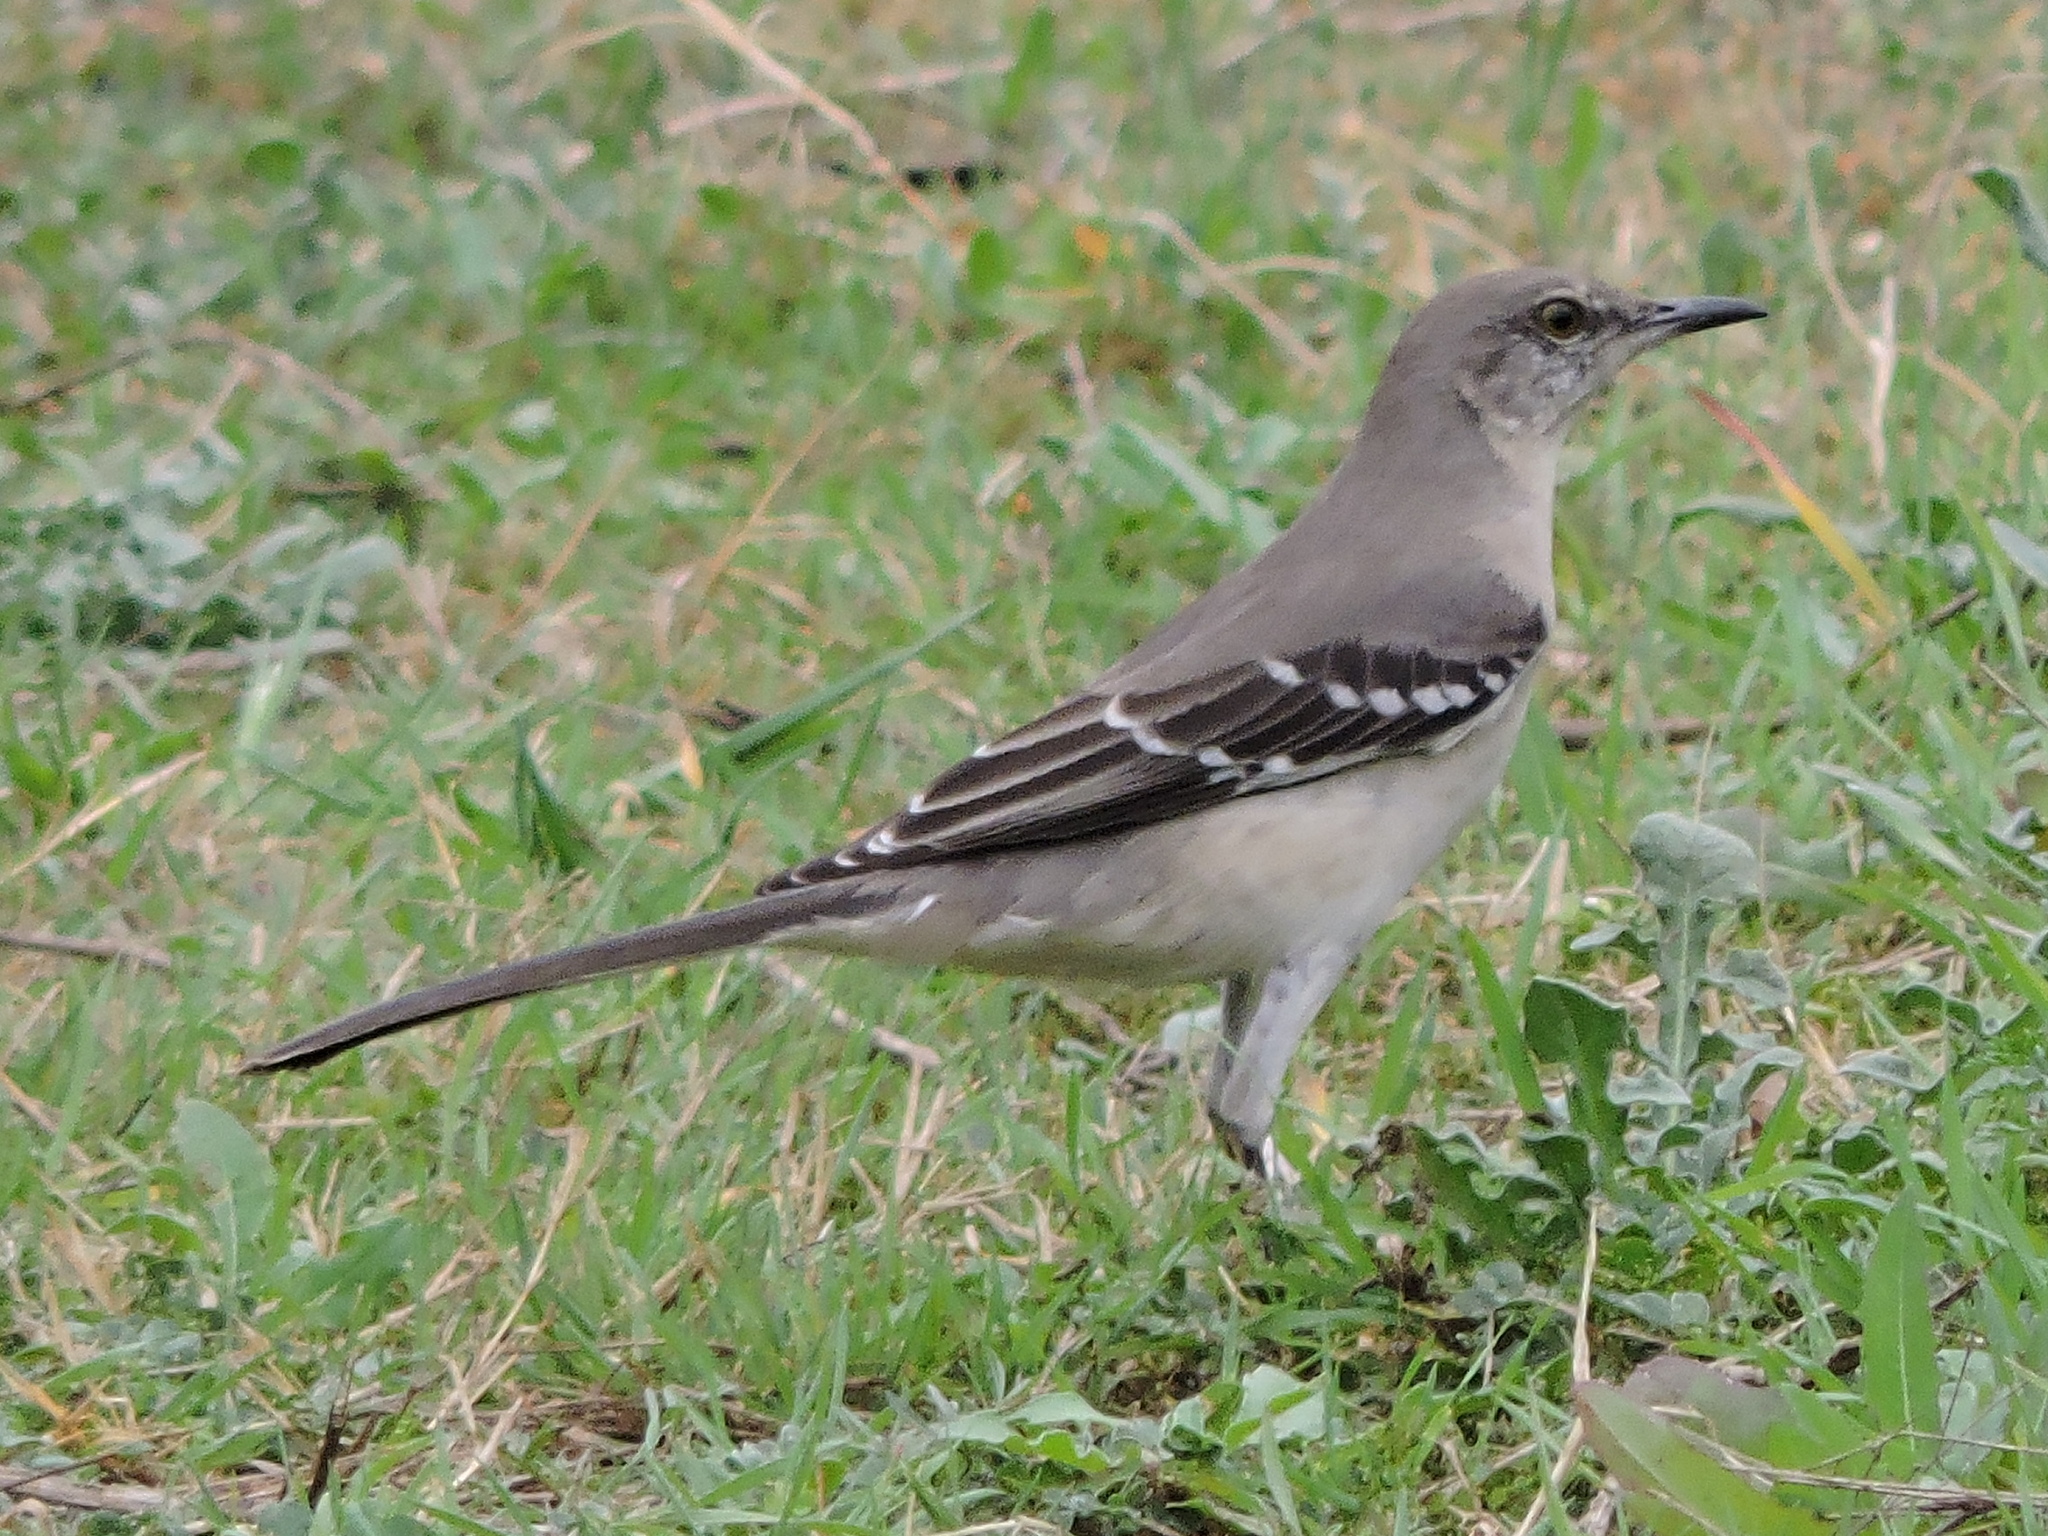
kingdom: Animalia
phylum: Chordata
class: Aves
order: Passeriformes
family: Mimidae
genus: Mimus
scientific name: Mimus polyglottos
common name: Northern mockingbird
